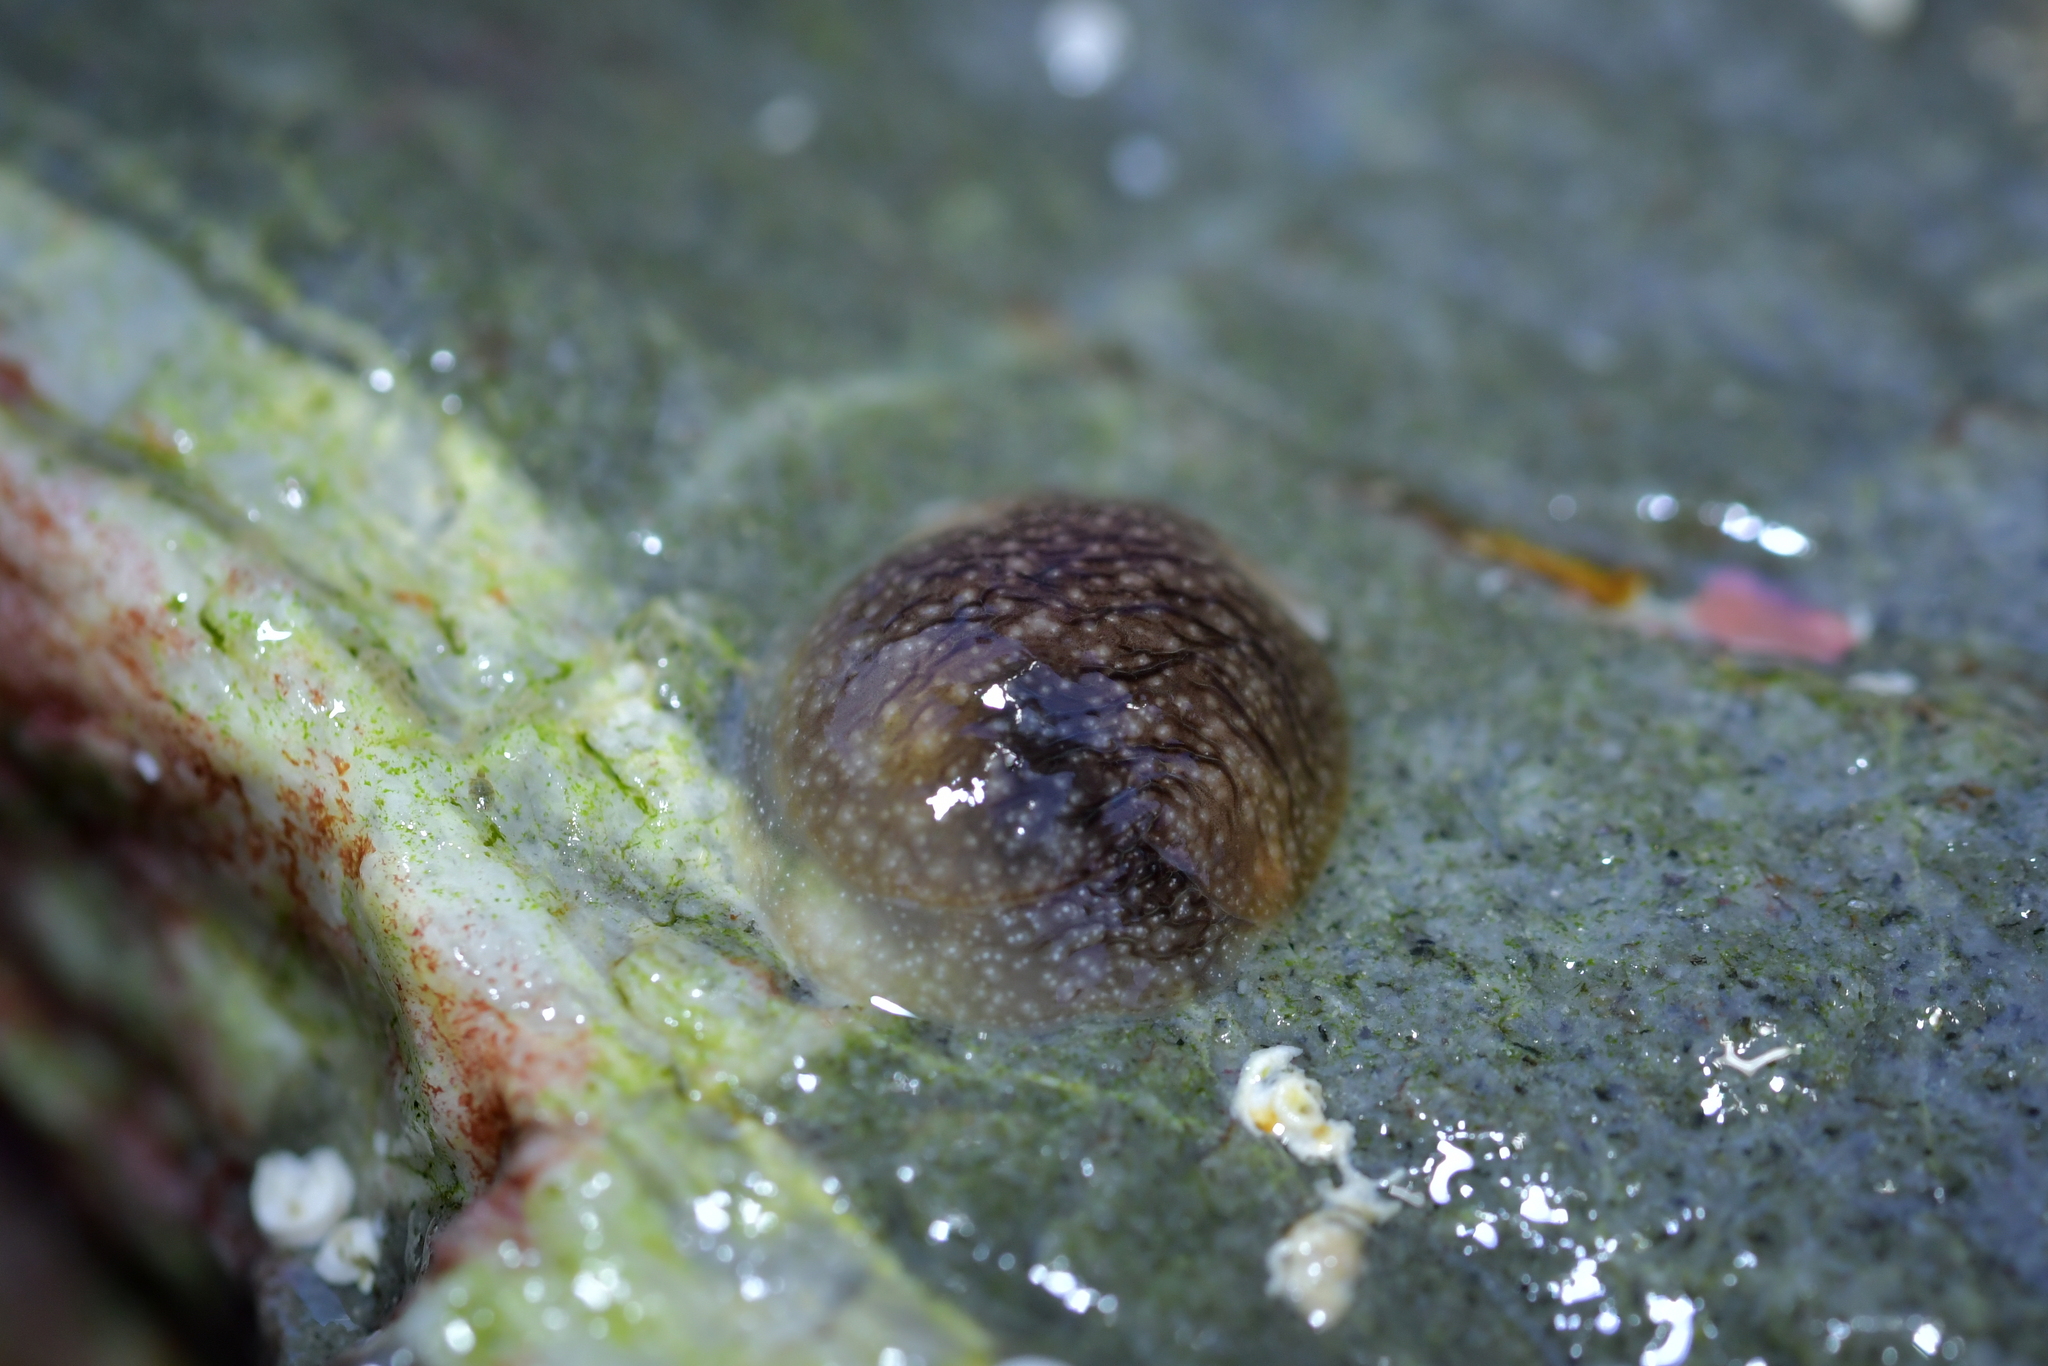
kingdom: Animalia
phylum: Mollusca
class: Gastropoda
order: Pleurobranchida
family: Pleurobranchaeidae
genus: Pleurobranchaea
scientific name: Pleurobranchaea maculata
